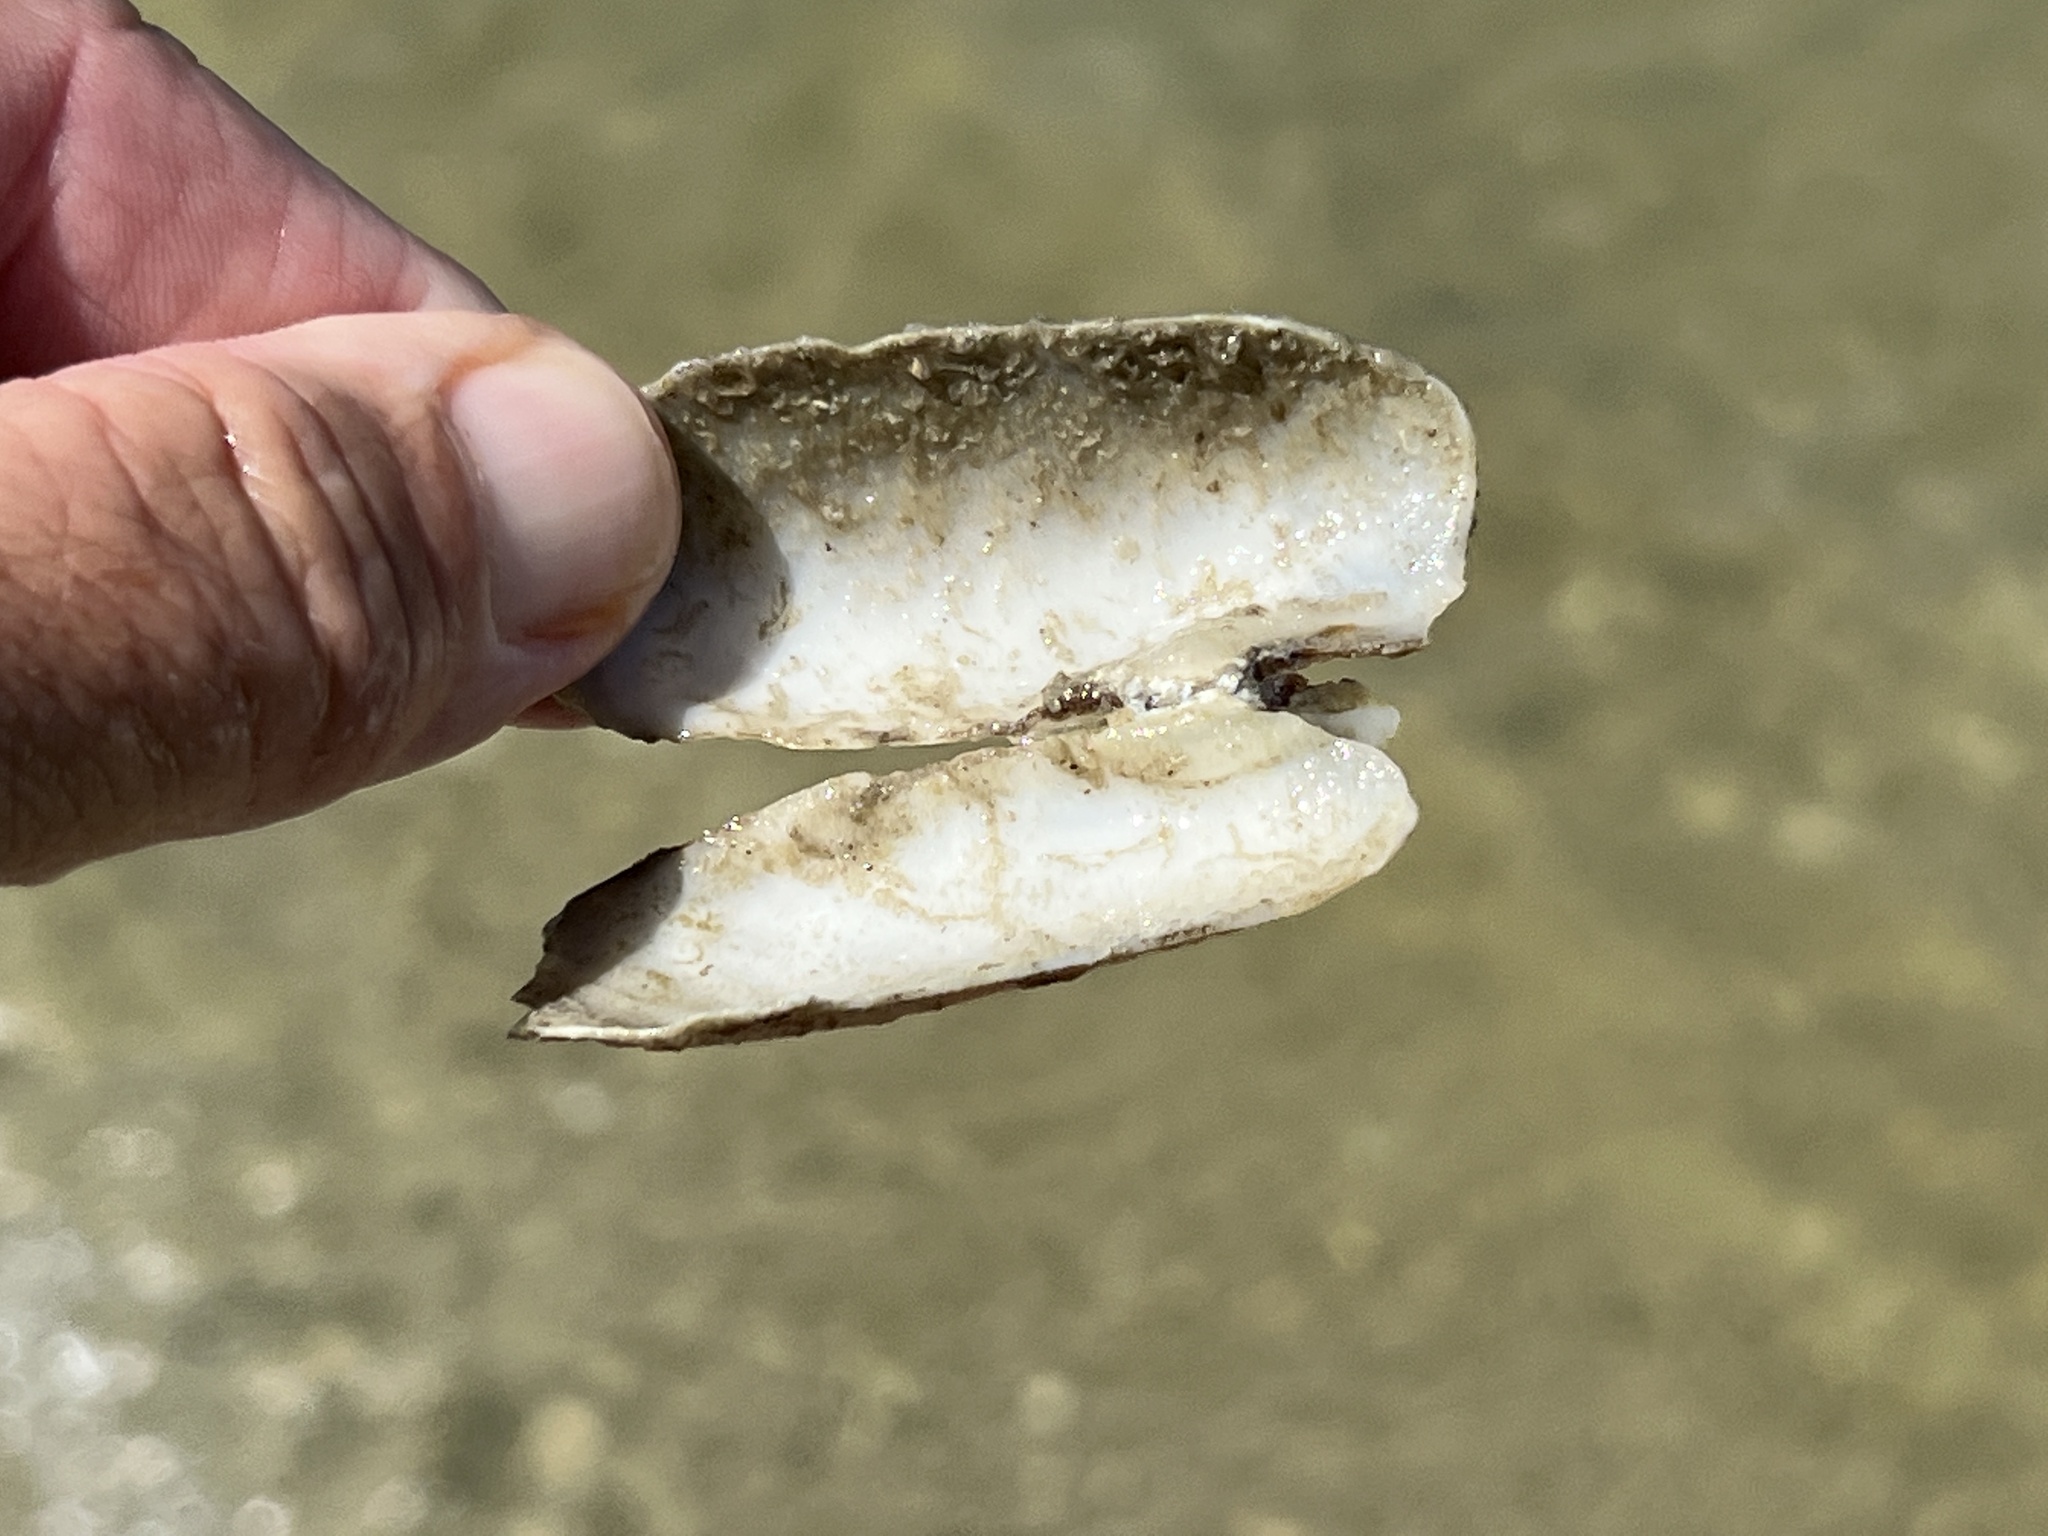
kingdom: Animalia
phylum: Mollusca
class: Bivalvia
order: Cardiida
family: Solecurtidae
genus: Tagelus
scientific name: Tagelus plebeius
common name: Stout tagelus
